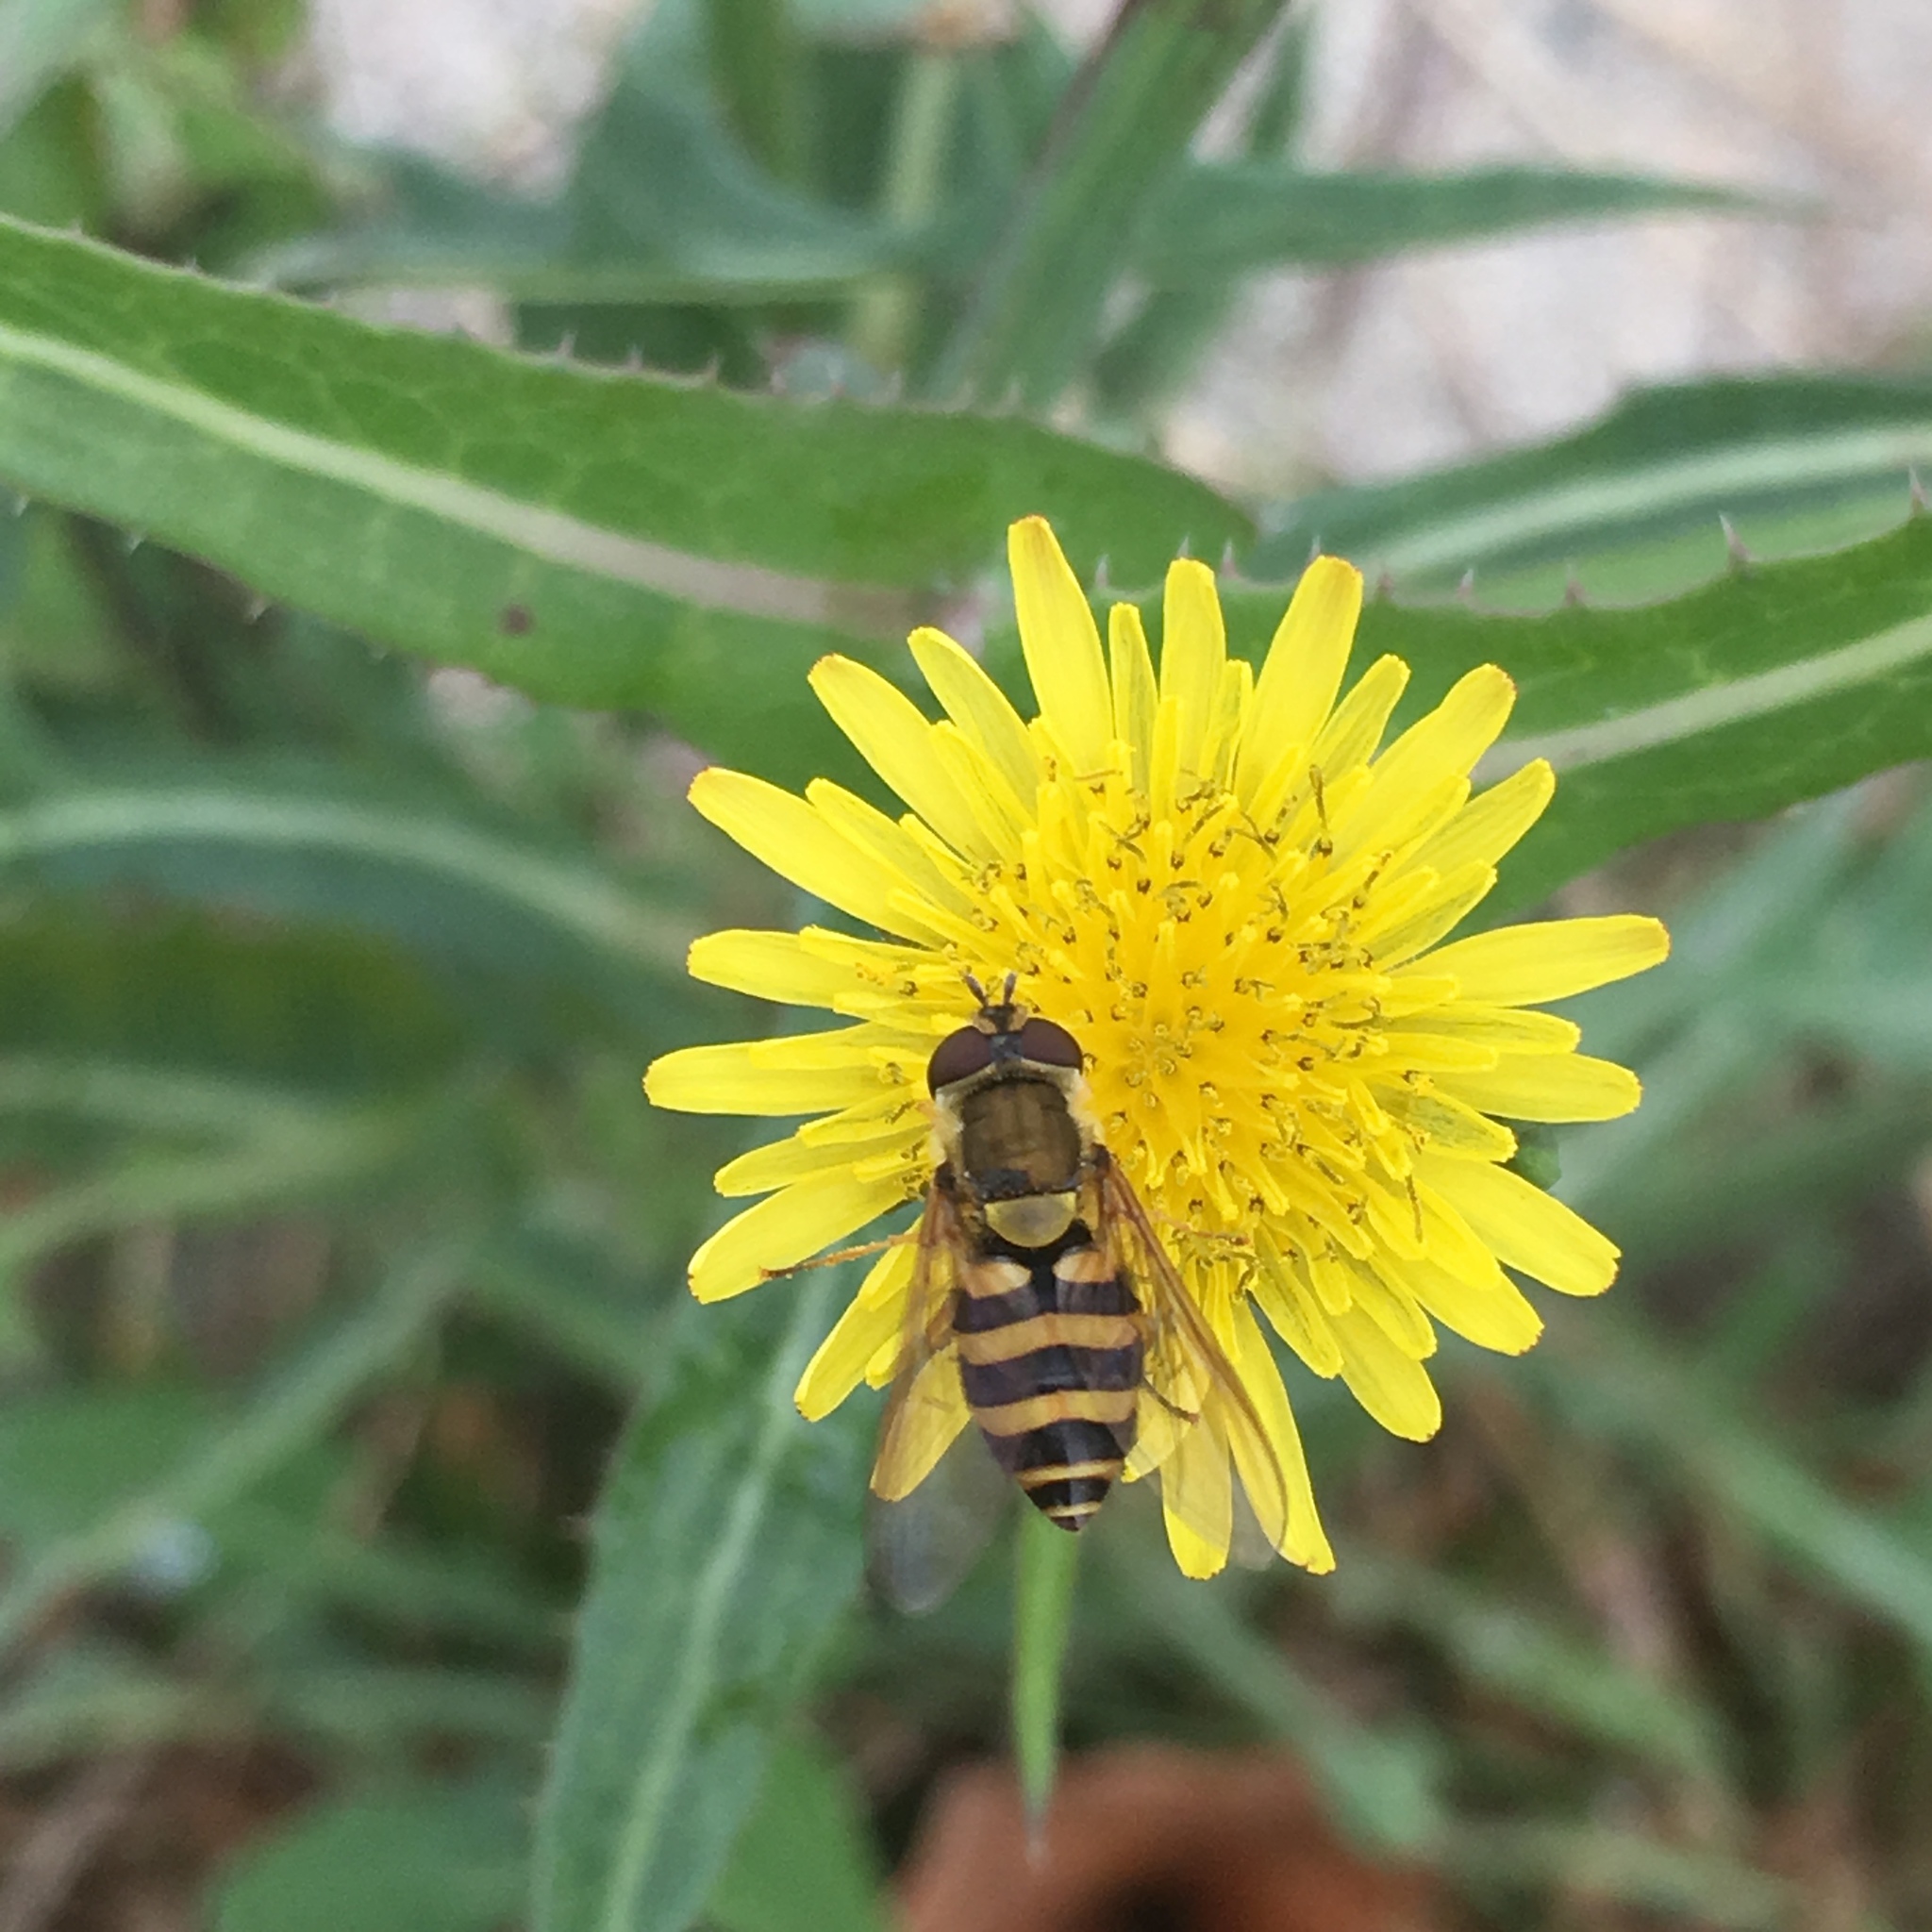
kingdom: Animalia
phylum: Arthropoda
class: Insecta
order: Diptera
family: Syrphidae
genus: Syrphus
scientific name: Syrphus
